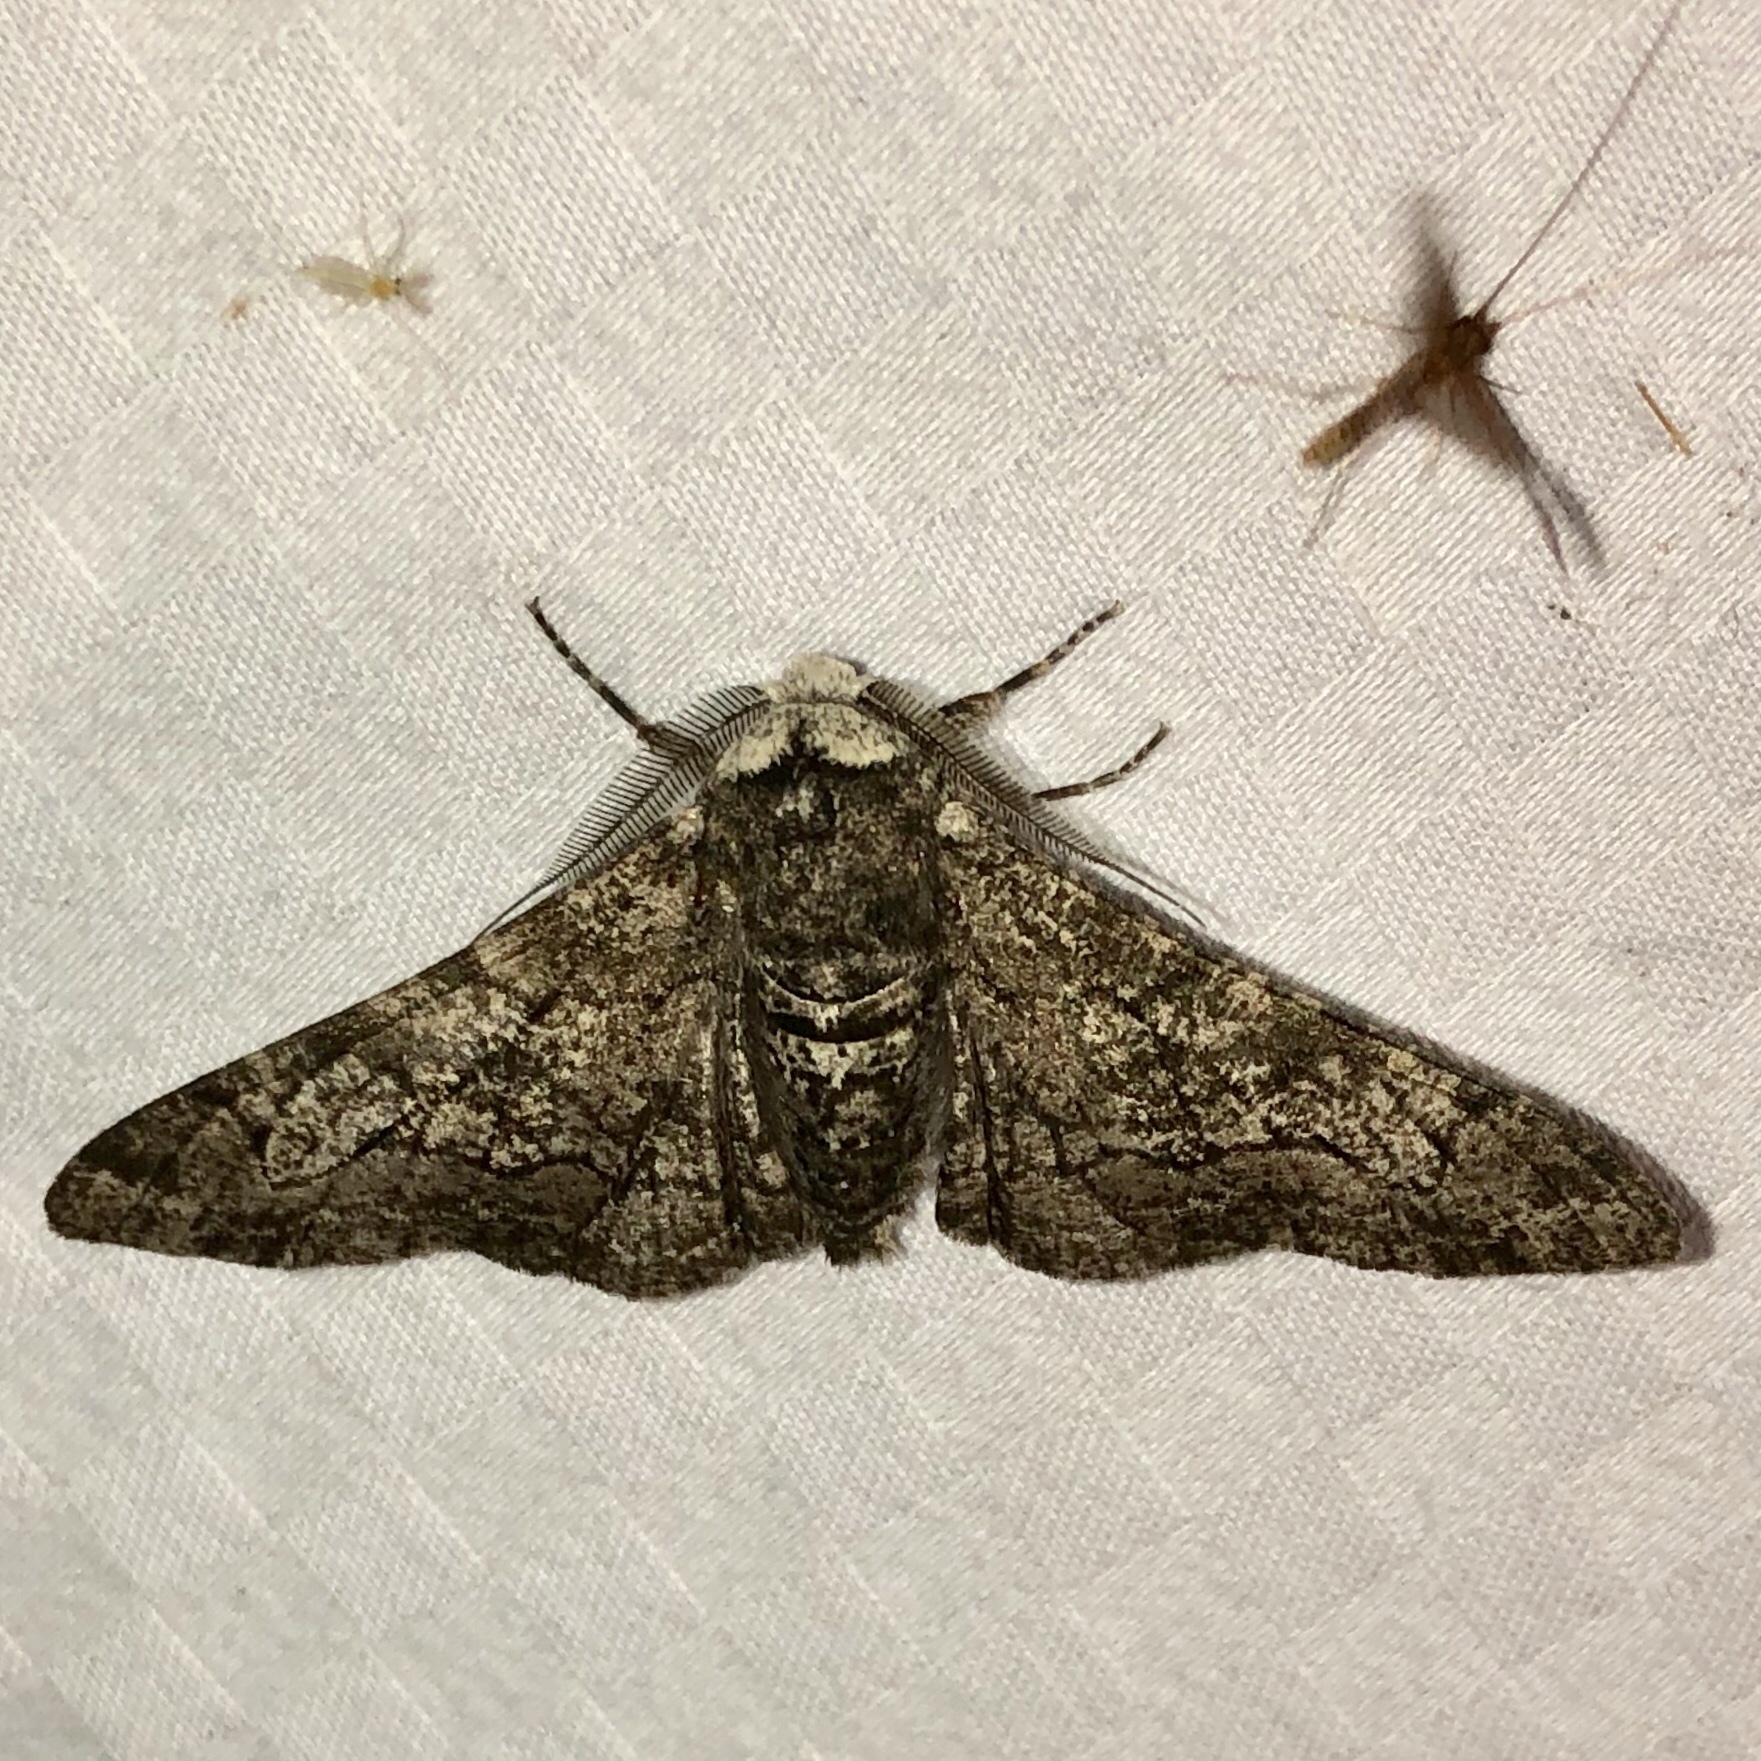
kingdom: Animalia
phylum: Arthropoda
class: Insecta
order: Lepidoptera
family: Geometridae
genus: Biston
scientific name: Biston betularia
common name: Peppered moth
